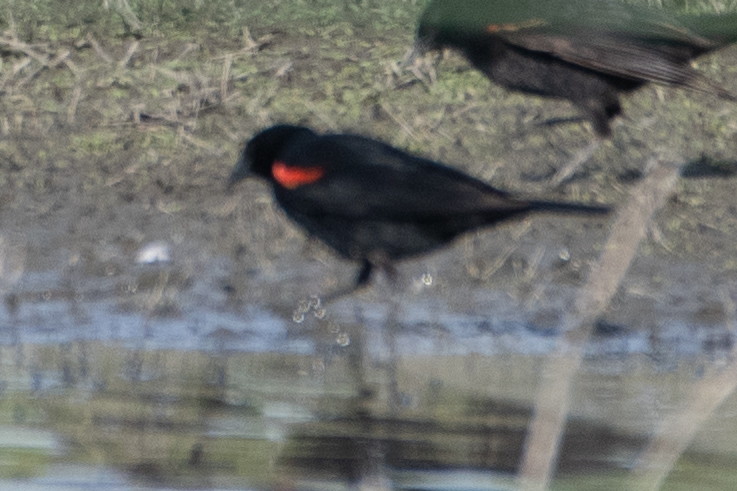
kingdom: Animalia
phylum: Chordata
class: Aves
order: Passeriformes
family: Icteridae
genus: Agelaius
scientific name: Agelaius phoeniceus
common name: Red-winged blackbird
